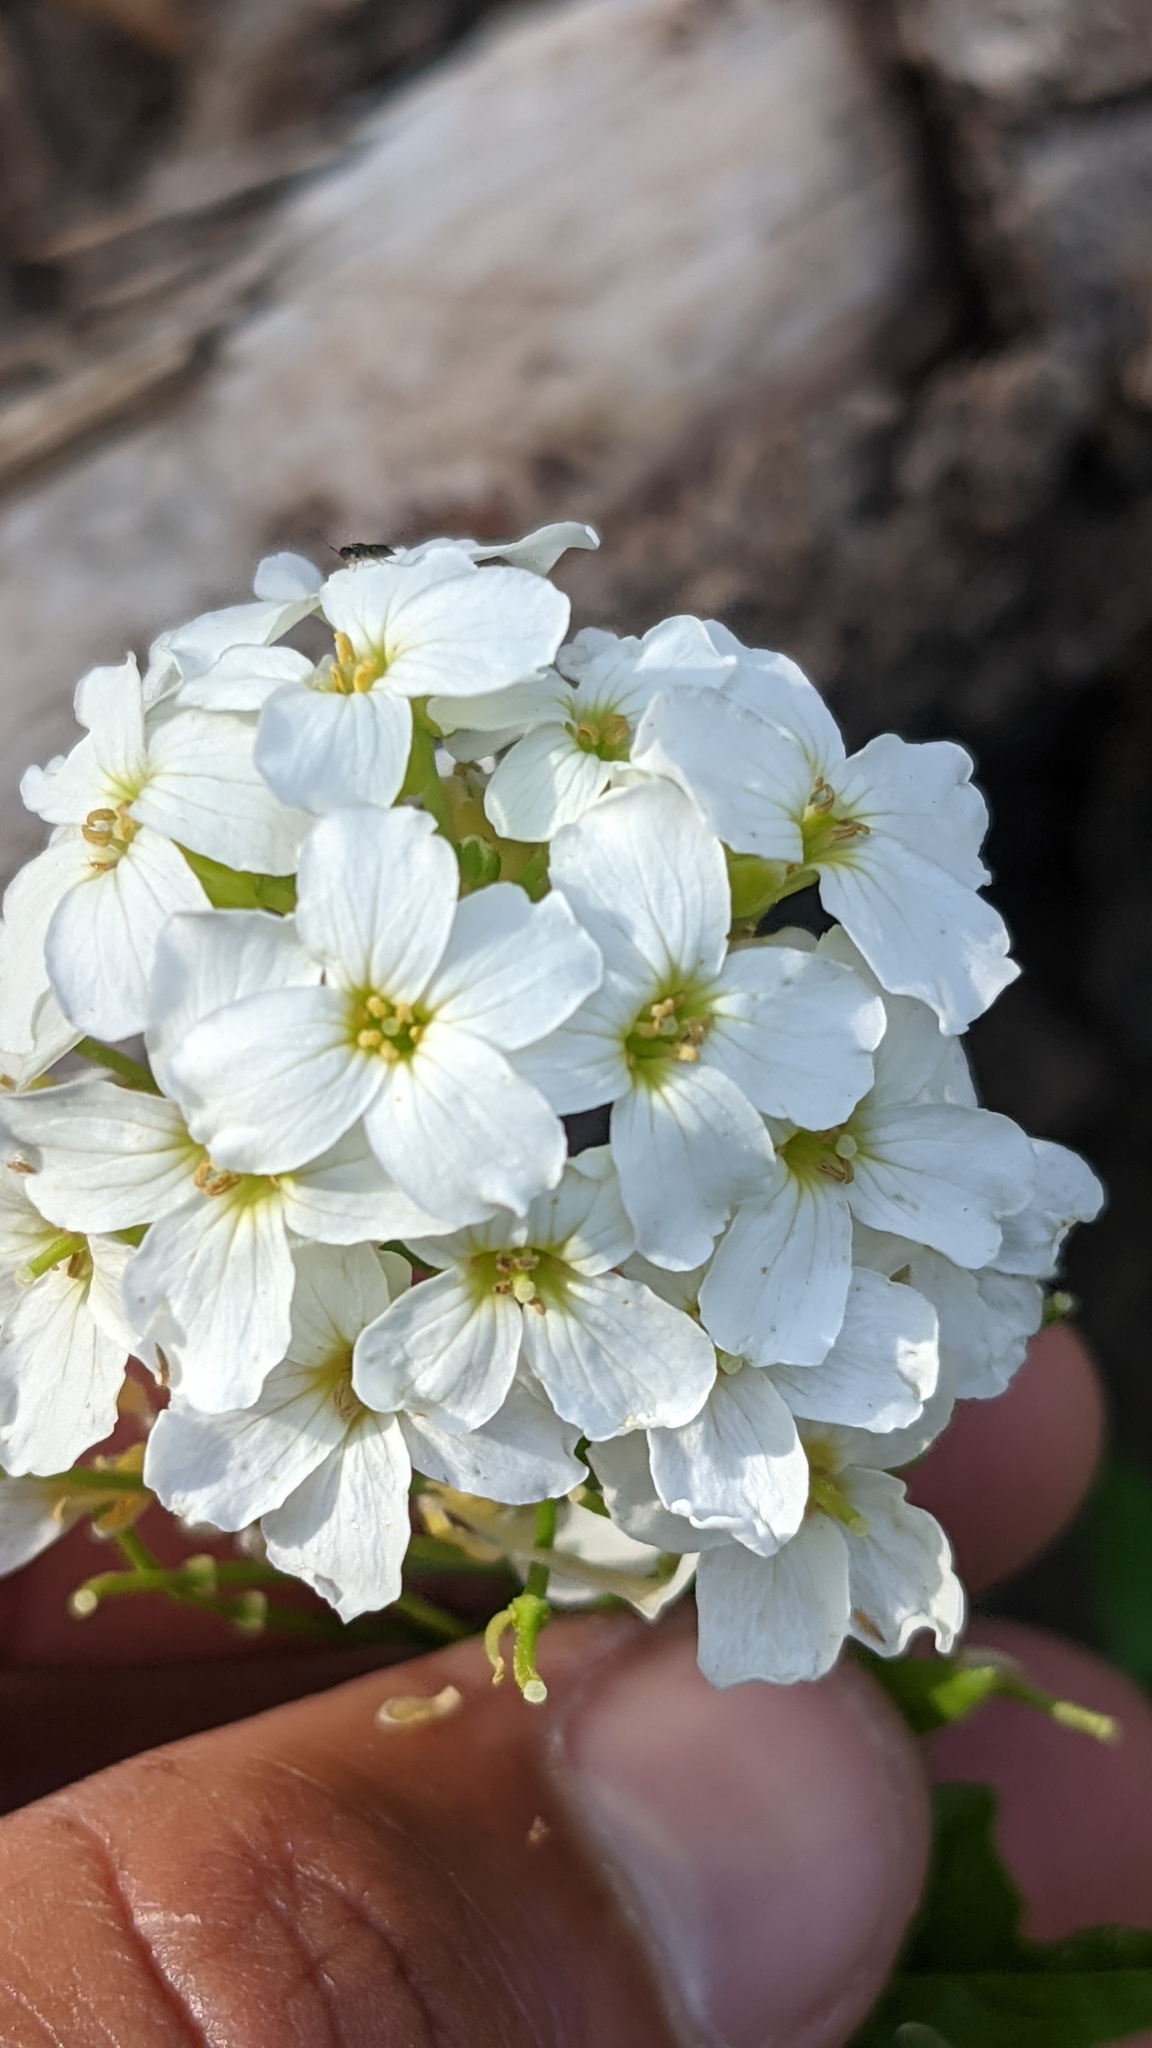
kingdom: Plantae
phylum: Tracheophyta
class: Magnoliopsida
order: Brassicales
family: Brassicaceae
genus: Cardamine
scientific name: Cardamine cordifolia
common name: Heart-leaf bittercress
